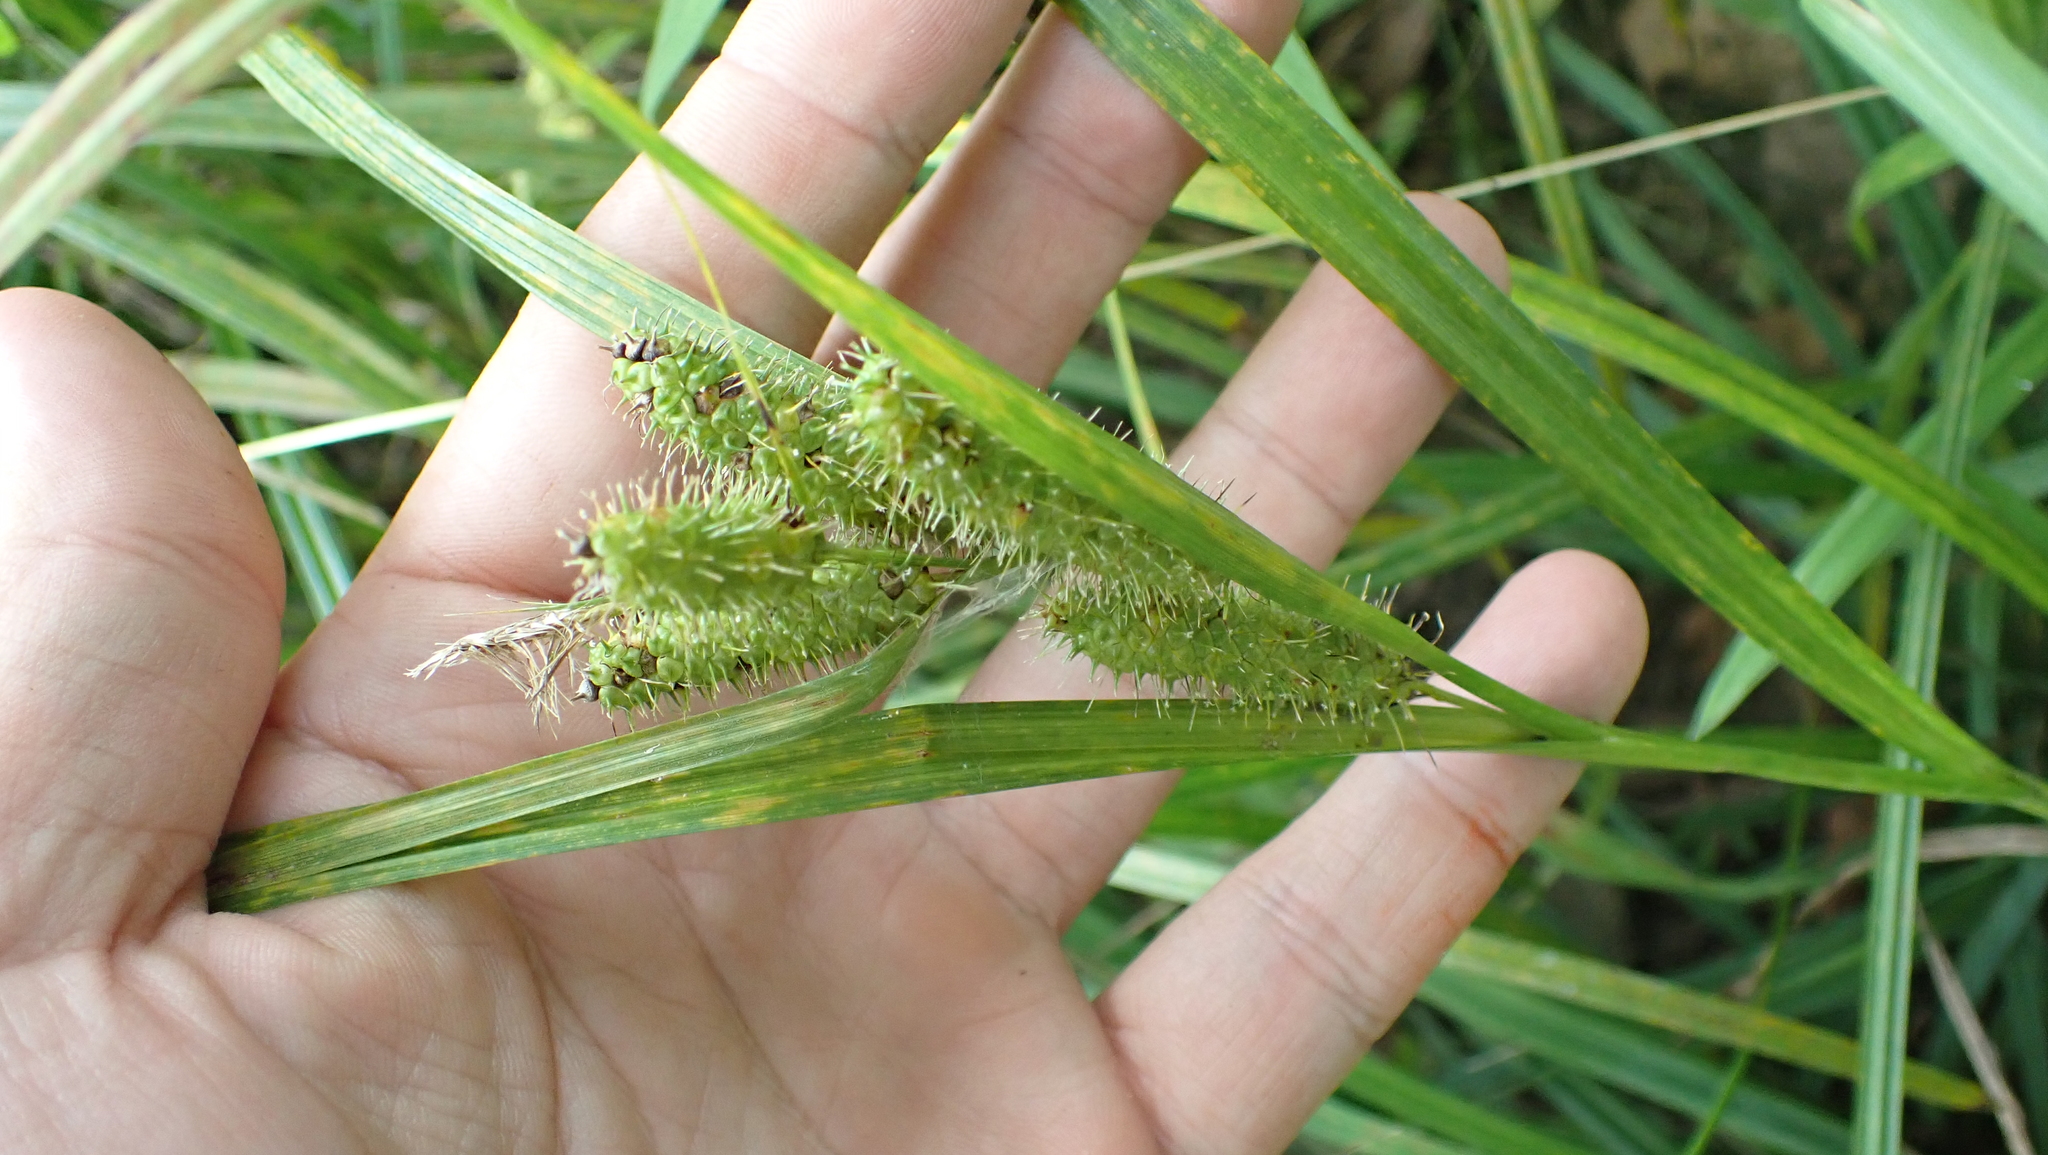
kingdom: Plantae
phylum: Tracheophyta
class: Liliopsida
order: Poales
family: Cyperaceae
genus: Carex
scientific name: Carex frankii
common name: Frank's sedge
